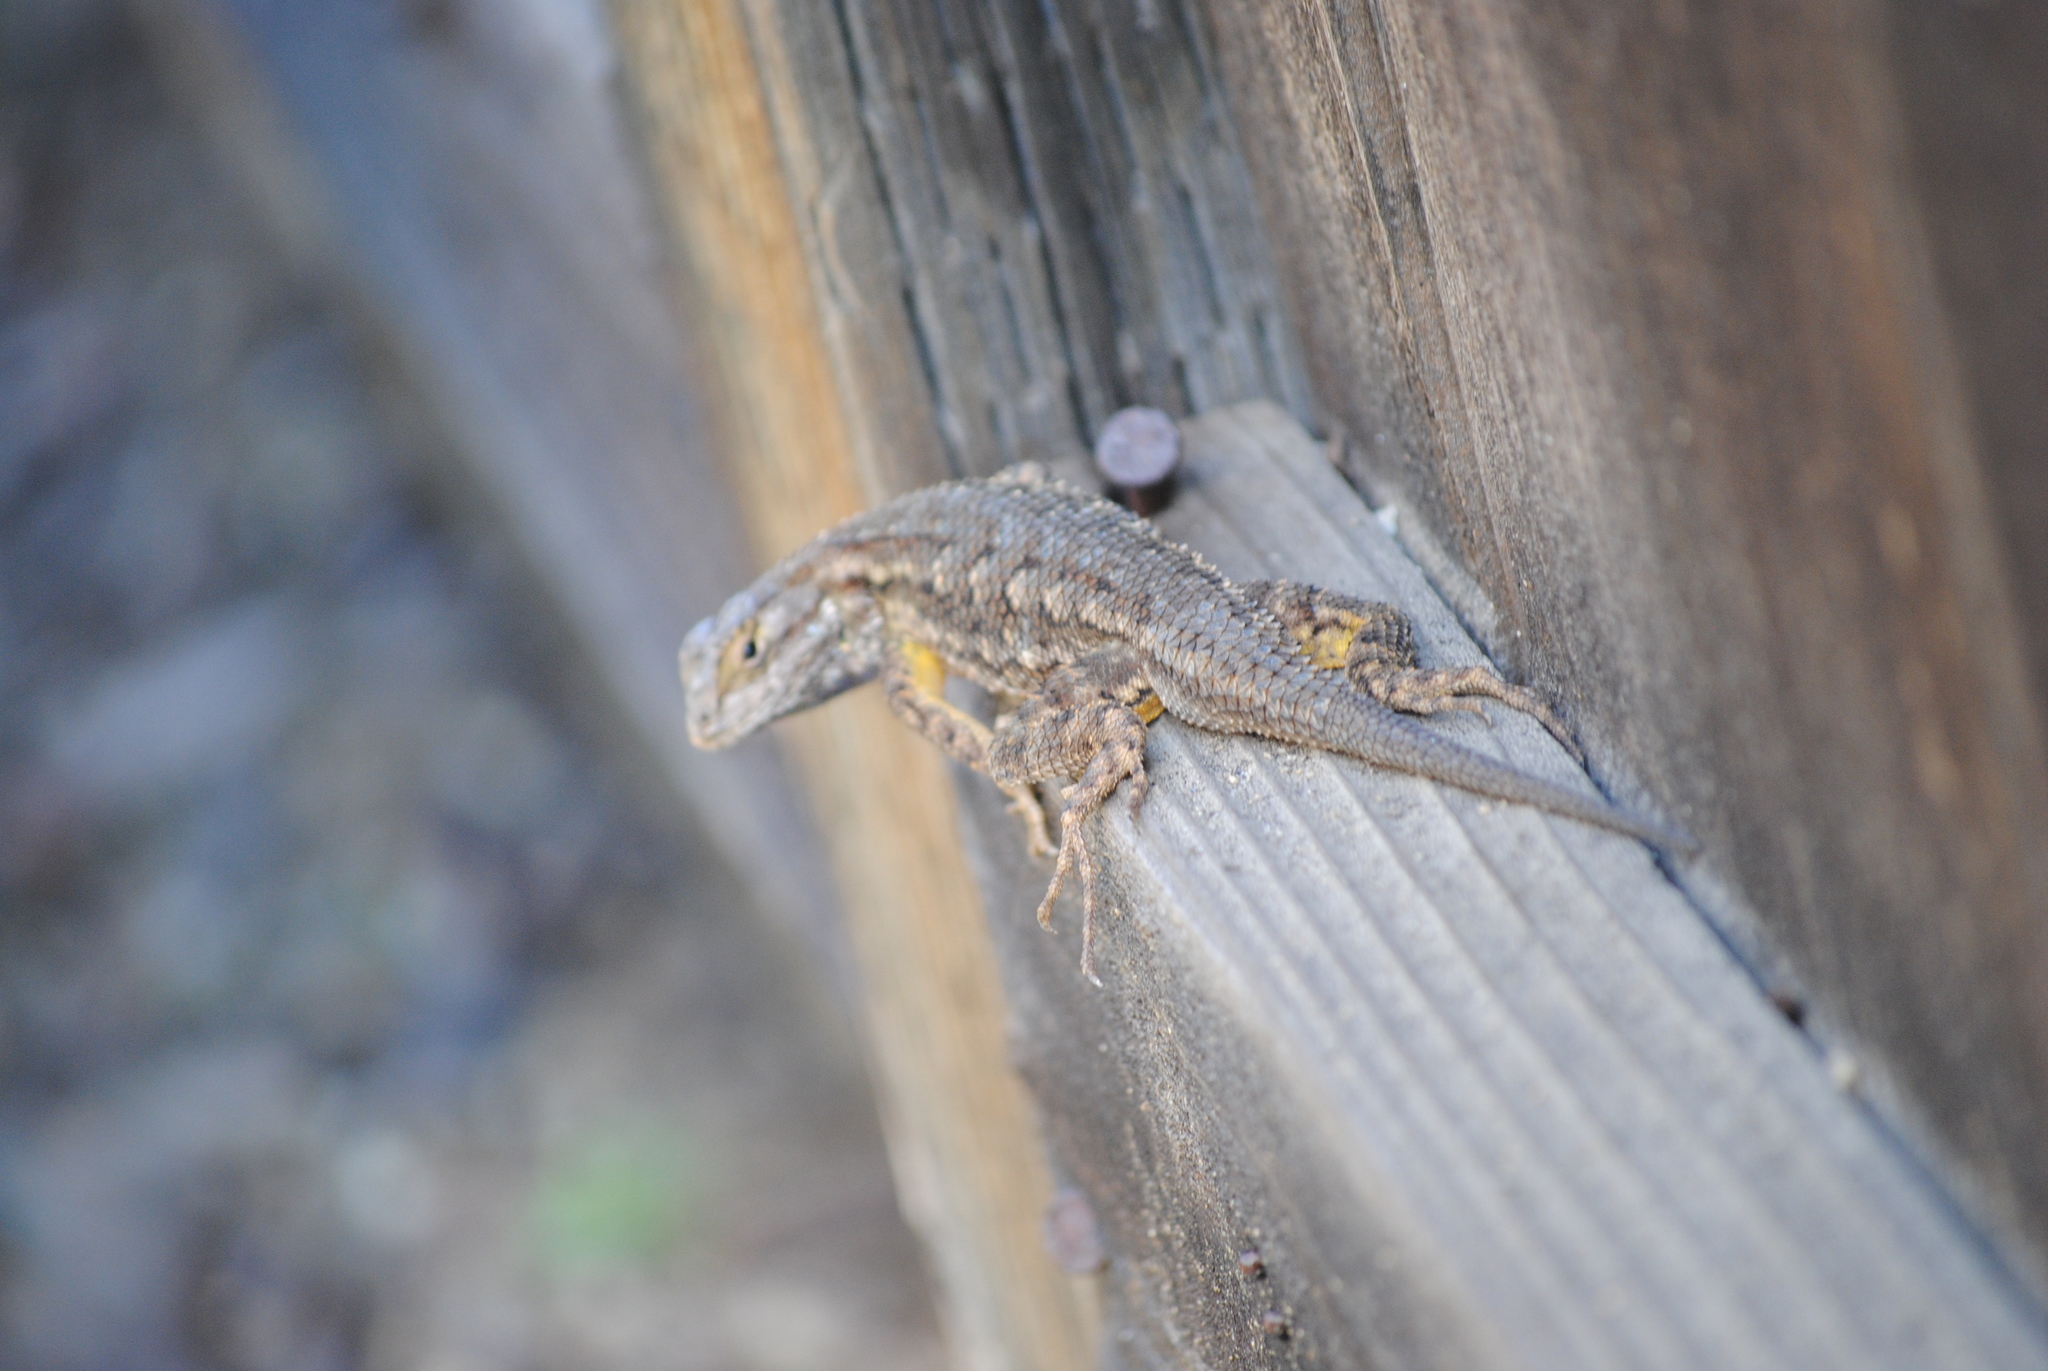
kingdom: Animalia
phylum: Chordata
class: Squamata
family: Phrynosomatidae
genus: Sceloporus
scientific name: Sceloporus occidentalis
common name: Western fence lizard
